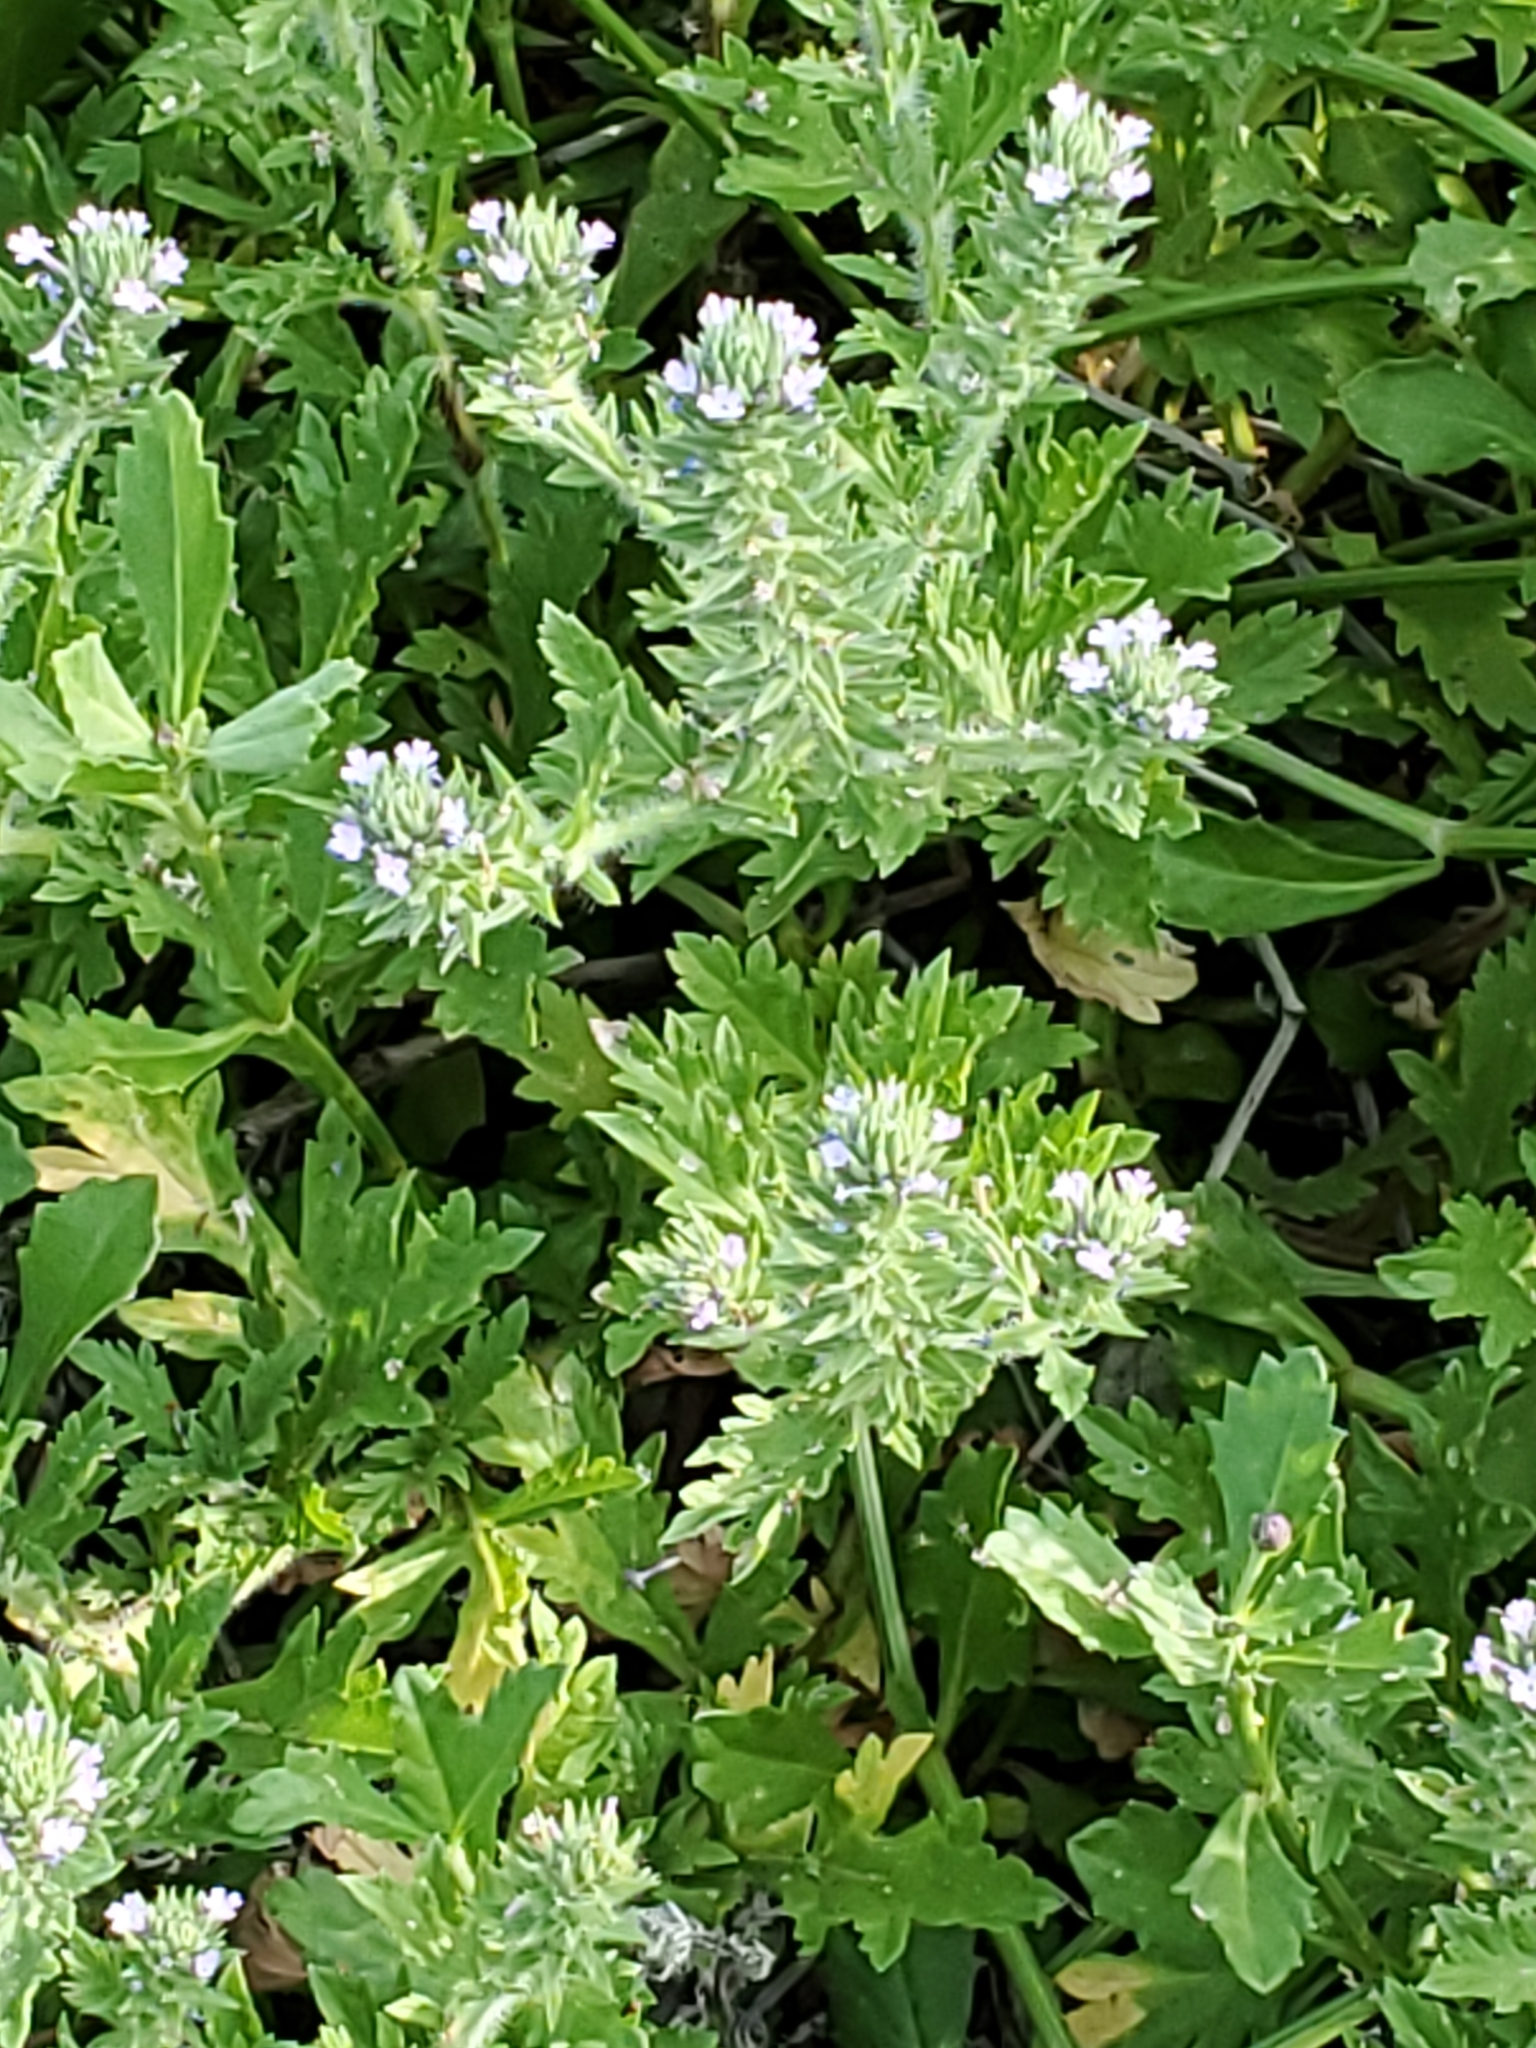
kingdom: Plantae
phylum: Tracheophyta
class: Magnoliopsida
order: Lamiales
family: Verbenaceae
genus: Verbena
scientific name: Verbena bracteata
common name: Bracted vervain
